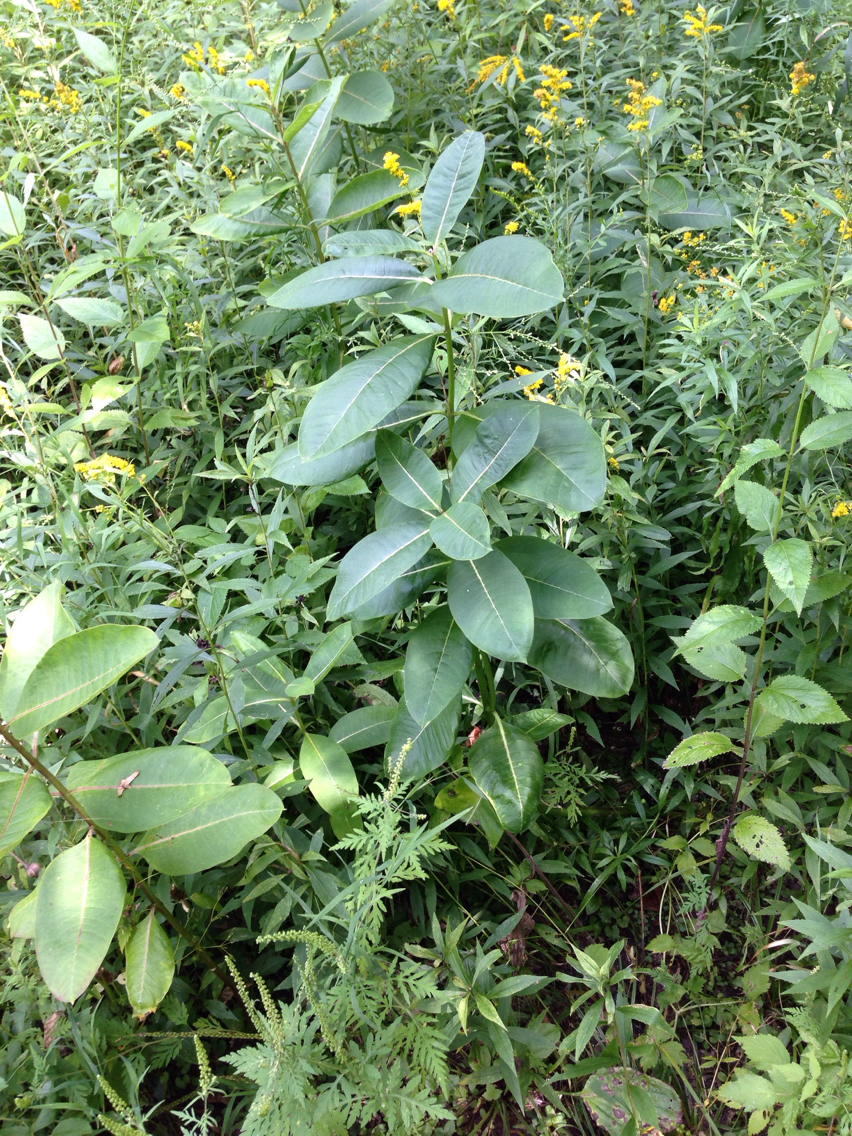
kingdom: Plantae
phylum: Tracheophyta
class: Magnoliopsida
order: Gentianales
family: Apocynaceae
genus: Asclepias
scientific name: Asclepias syriaca
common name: Common milkweed
